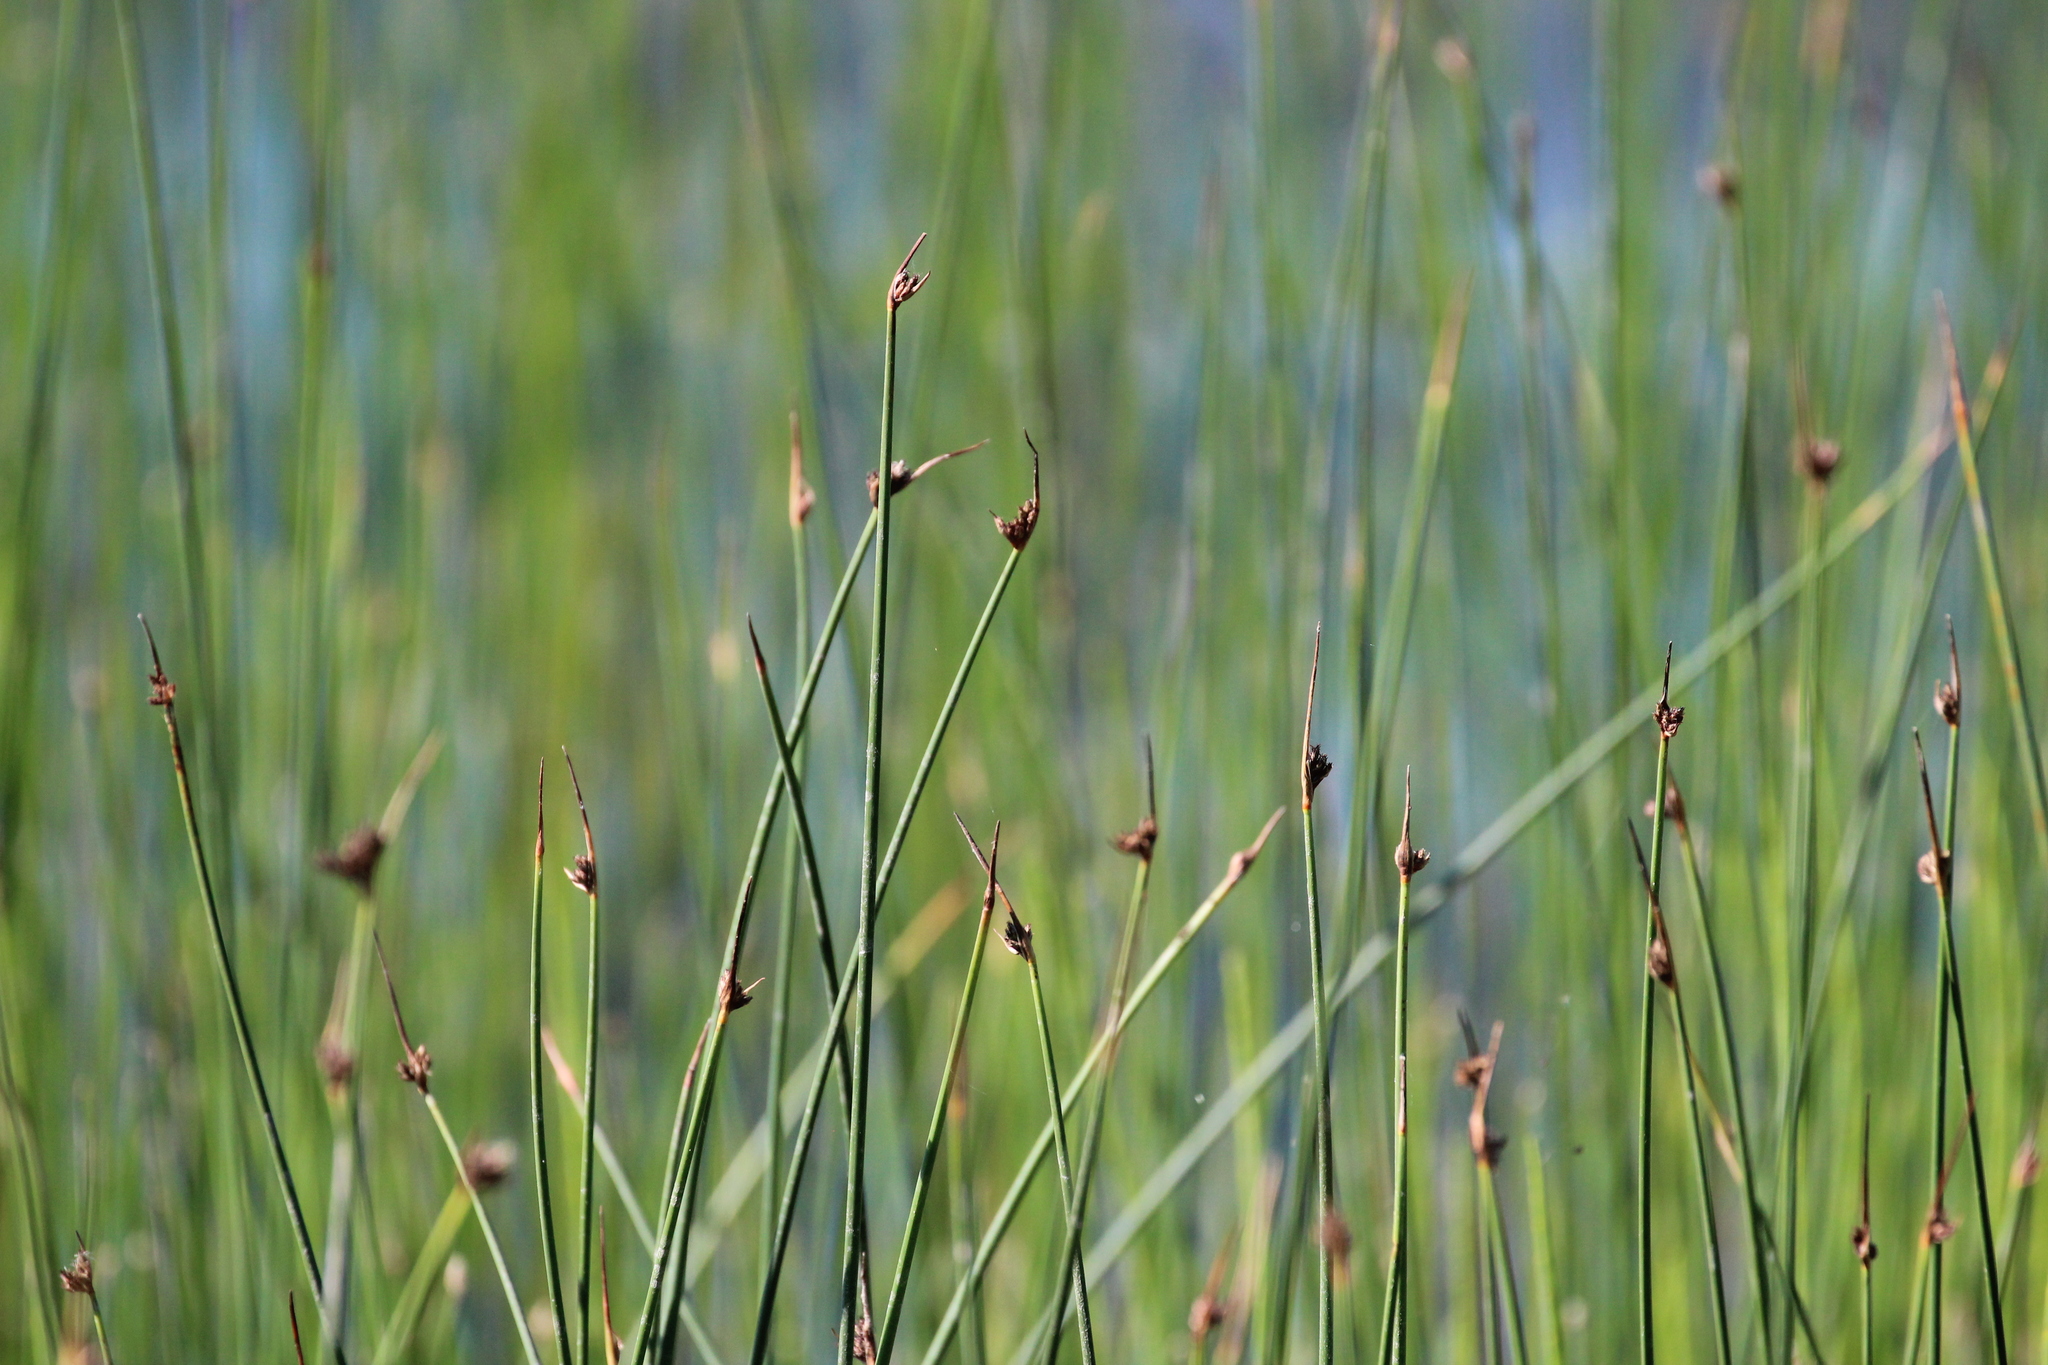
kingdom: Plantae
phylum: Tracheophyta
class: Liliopsida
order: Poales
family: Cyperaceae
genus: Schoenoplectus
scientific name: Schoenoplectus pungens
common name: Sharp club-rush
